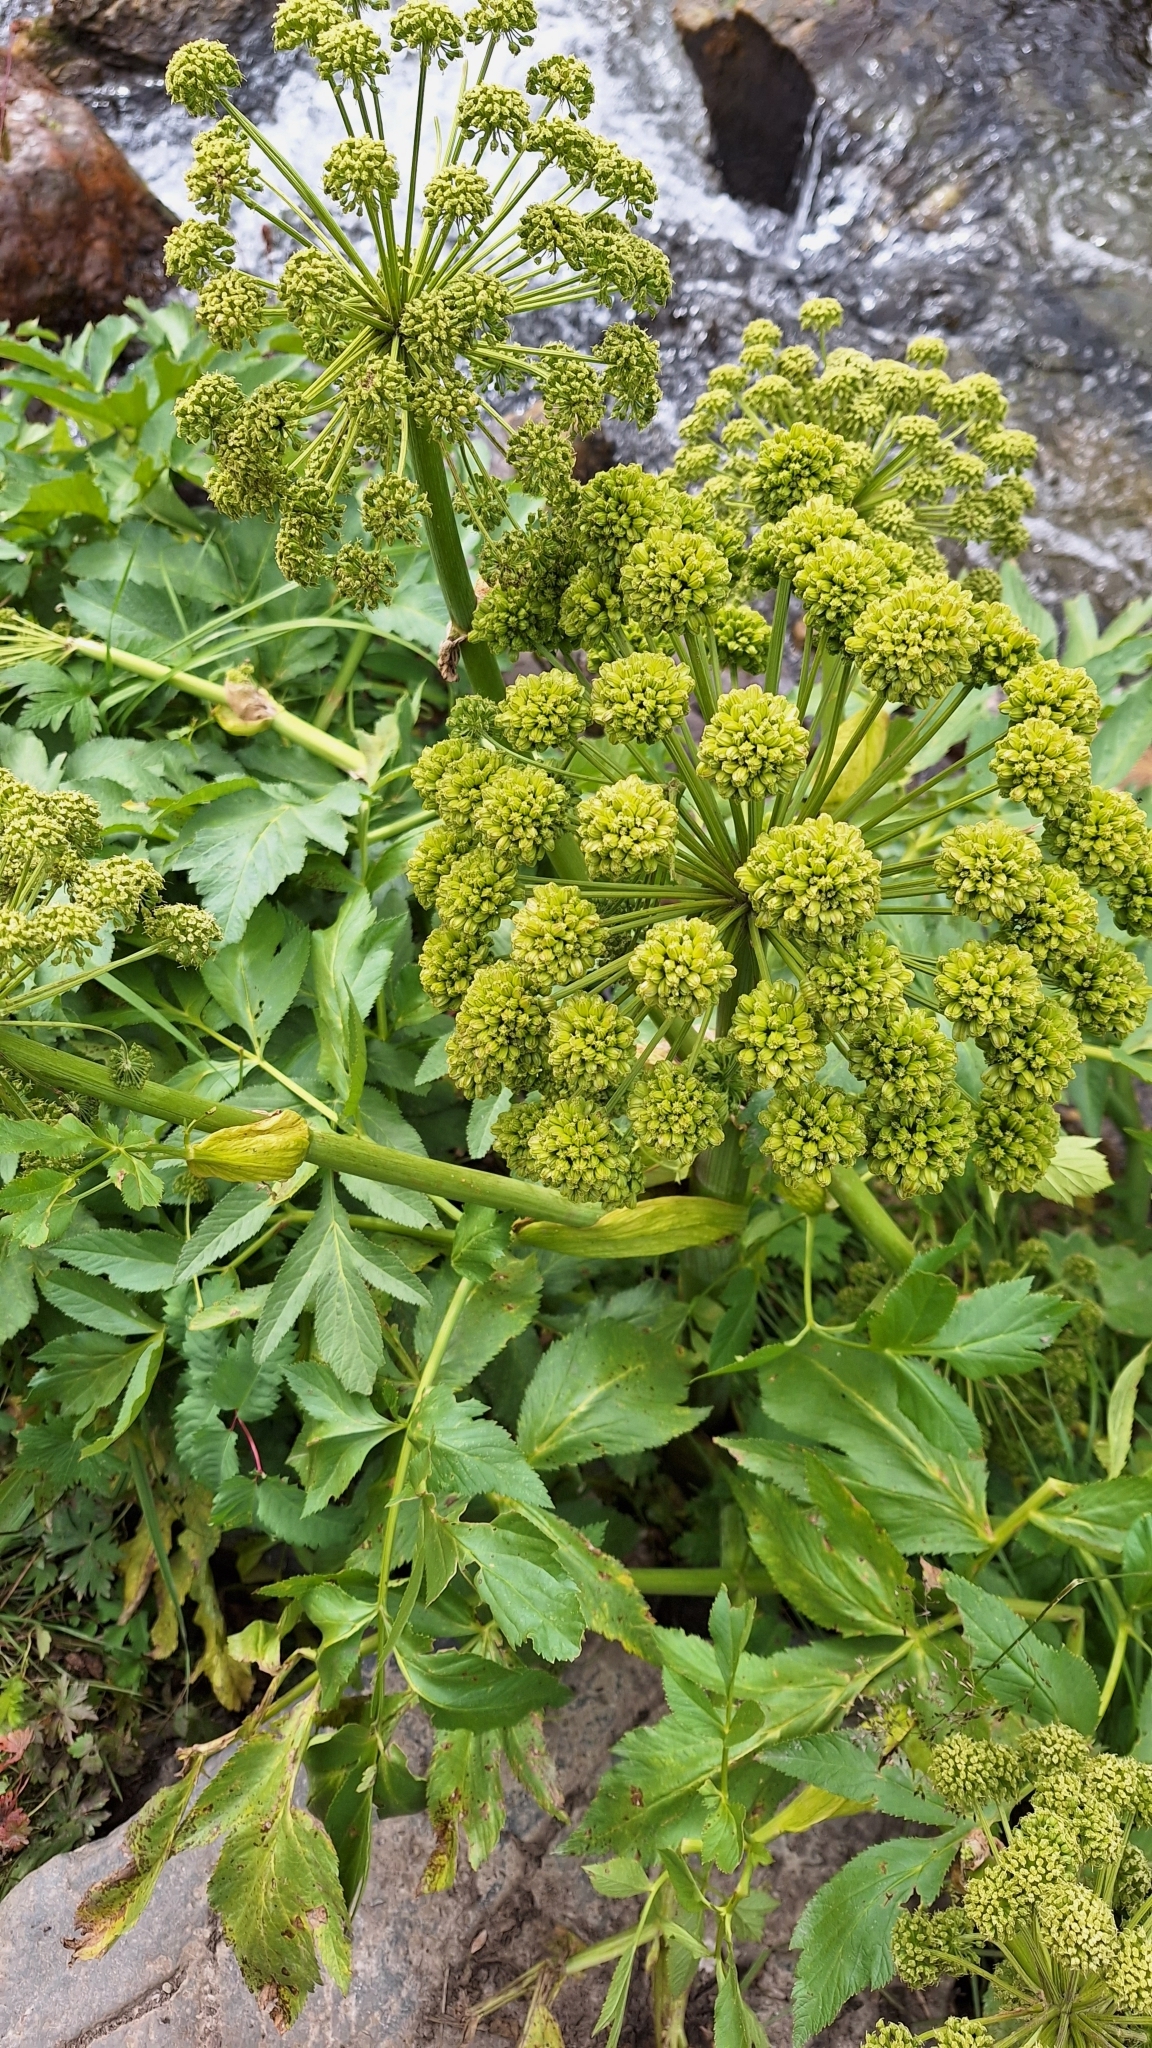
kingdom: Plantae
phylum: Tracheophyta
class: Magnoliopsida
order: Apiales
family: Apiaceae
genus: Angelica
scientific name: Angelica decurrens
